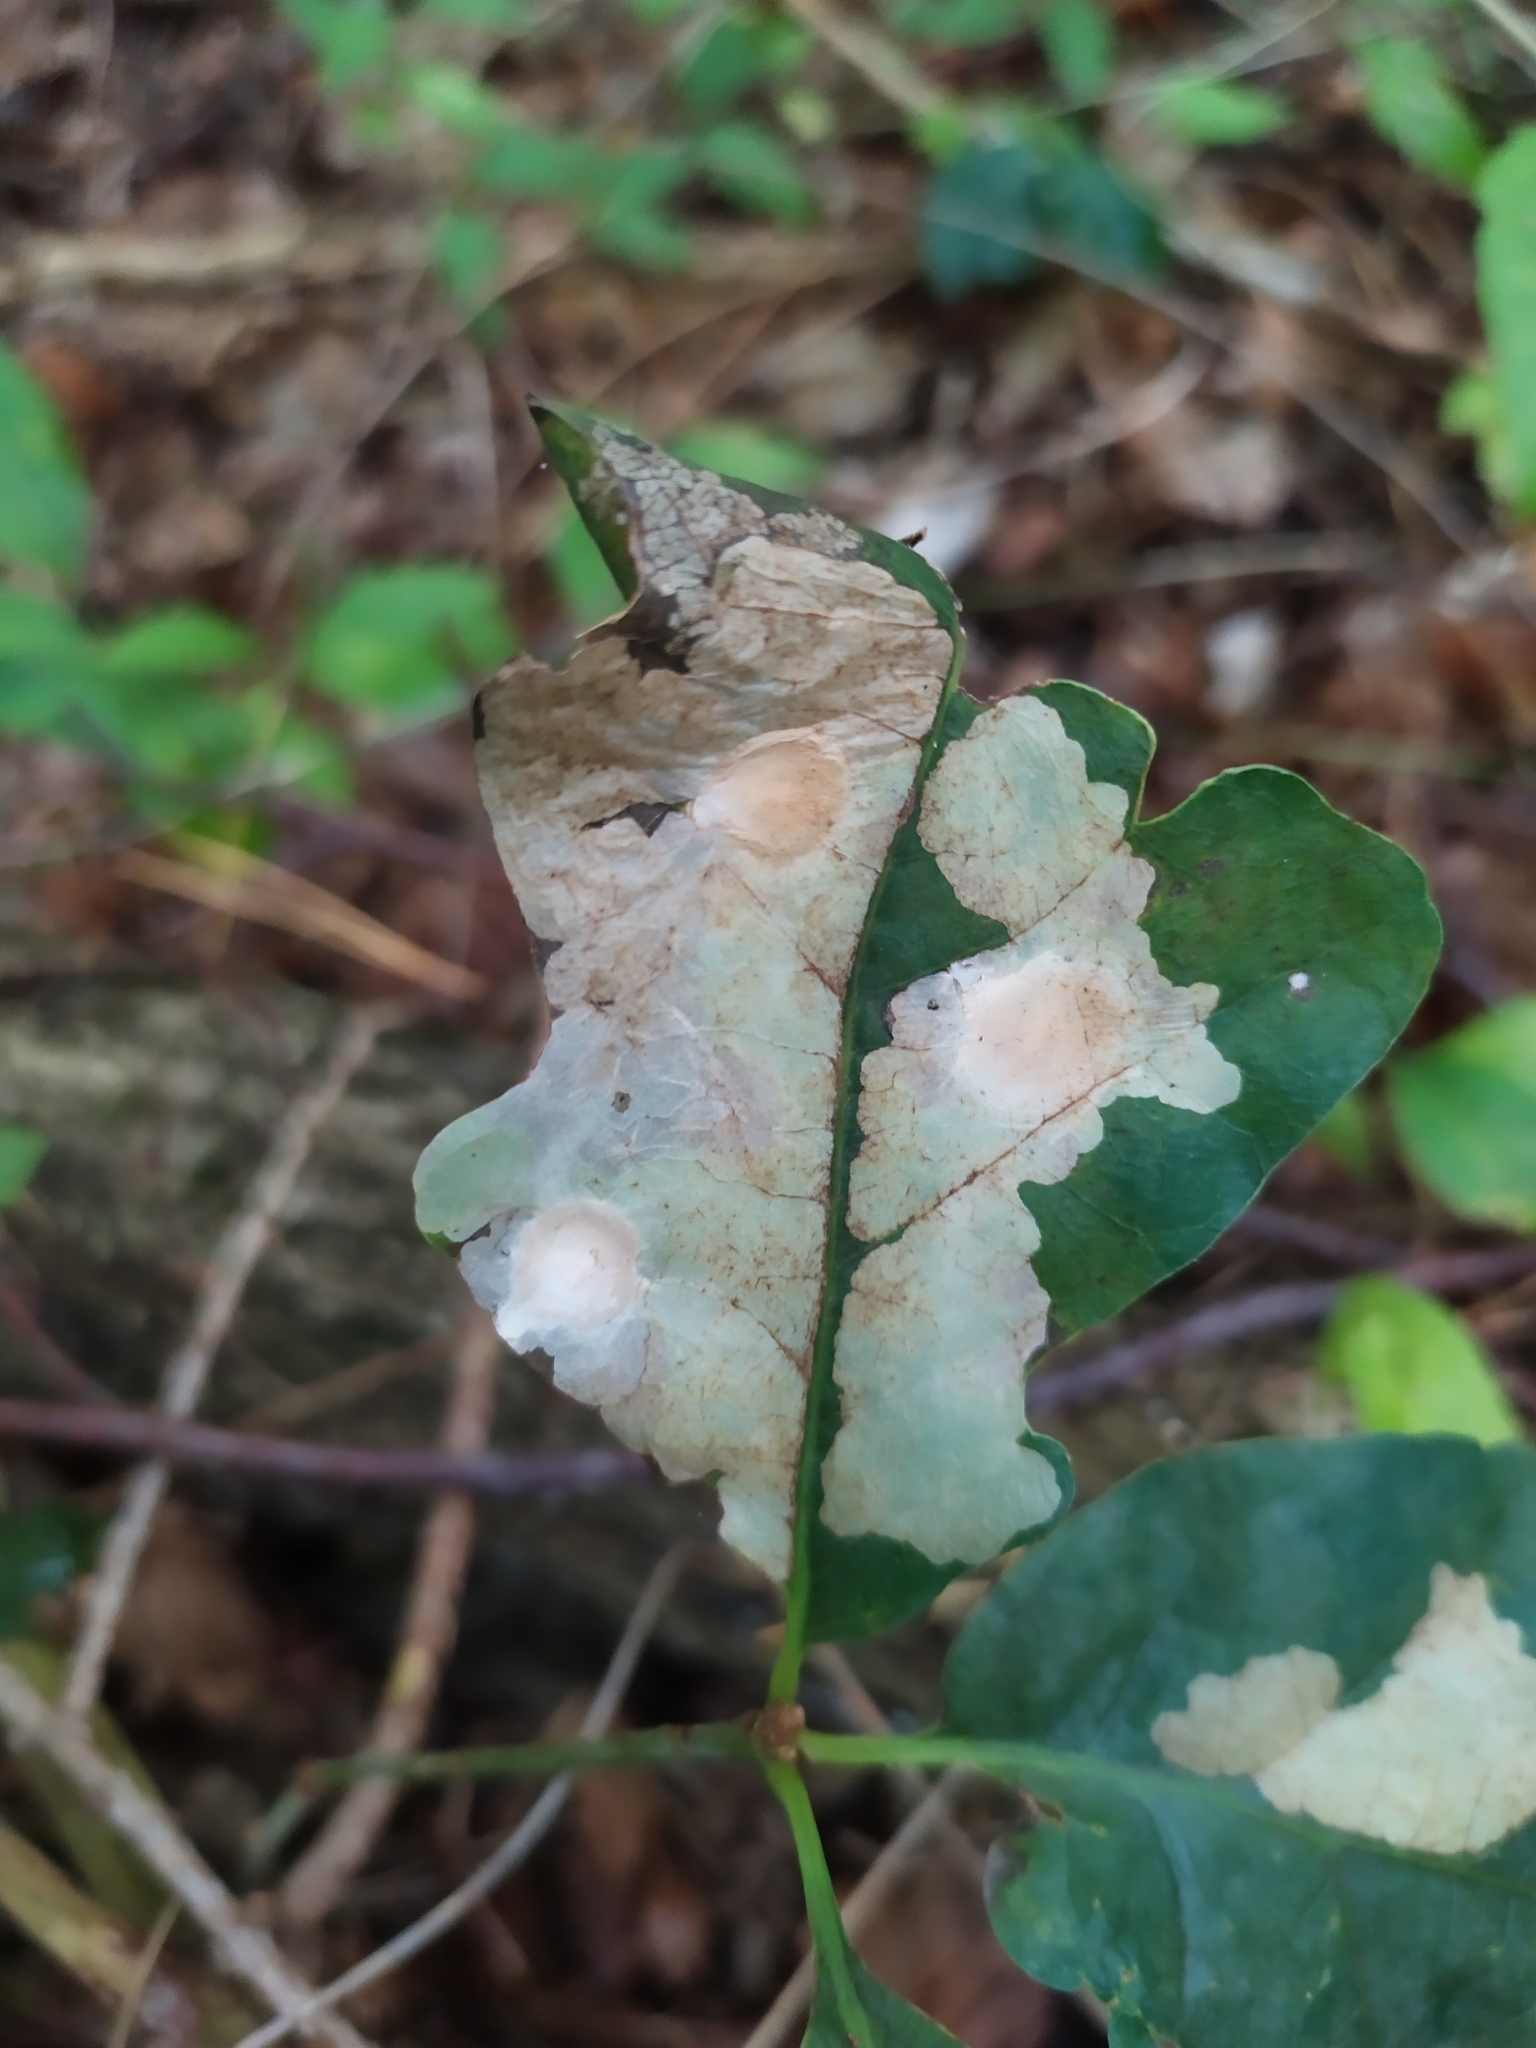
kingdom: Animalia
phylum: Arthropoda
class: Insecta
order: Lepidoptera
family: Tischeriidae
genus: Tischeria
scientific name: Tischeria ekebladella
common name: Oak carl
